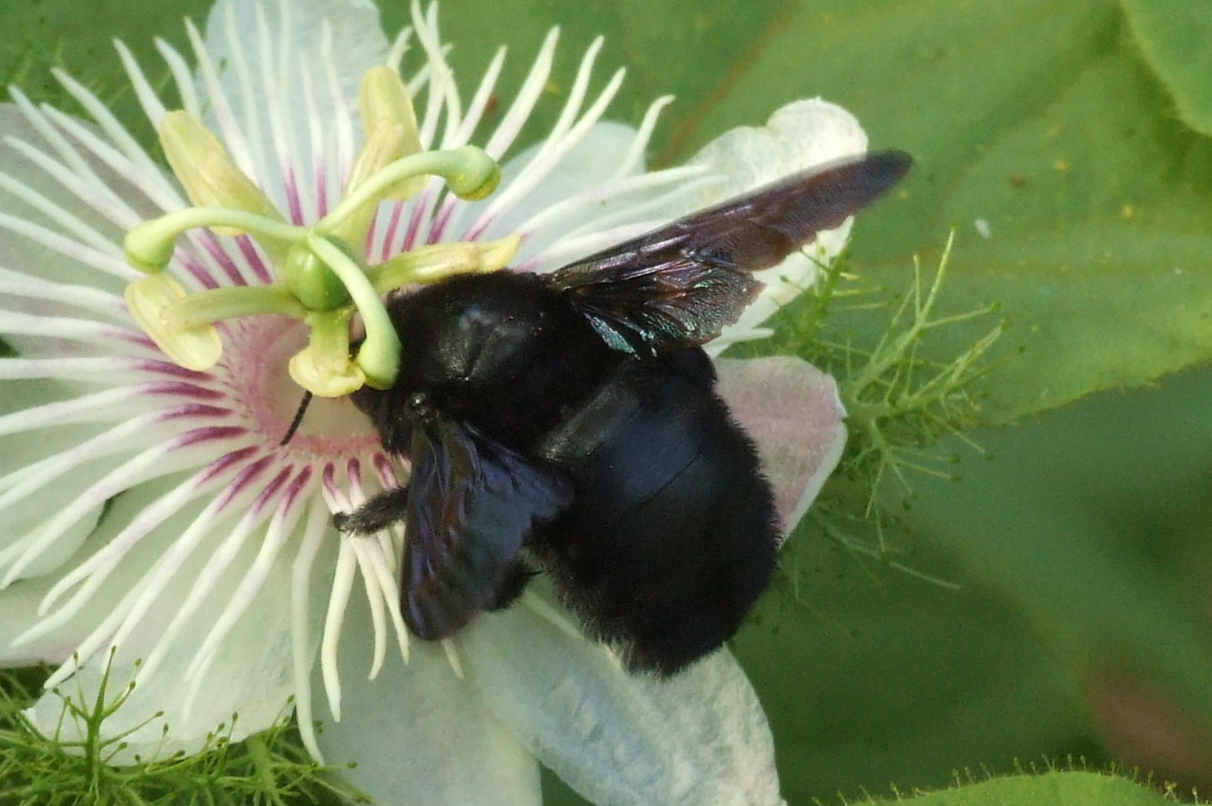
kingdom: Animalia
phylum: Arthropoda
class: Insecta
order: Hymenoptera
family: Apidae
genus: Xylocopa
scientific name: Xylocopa darwini
